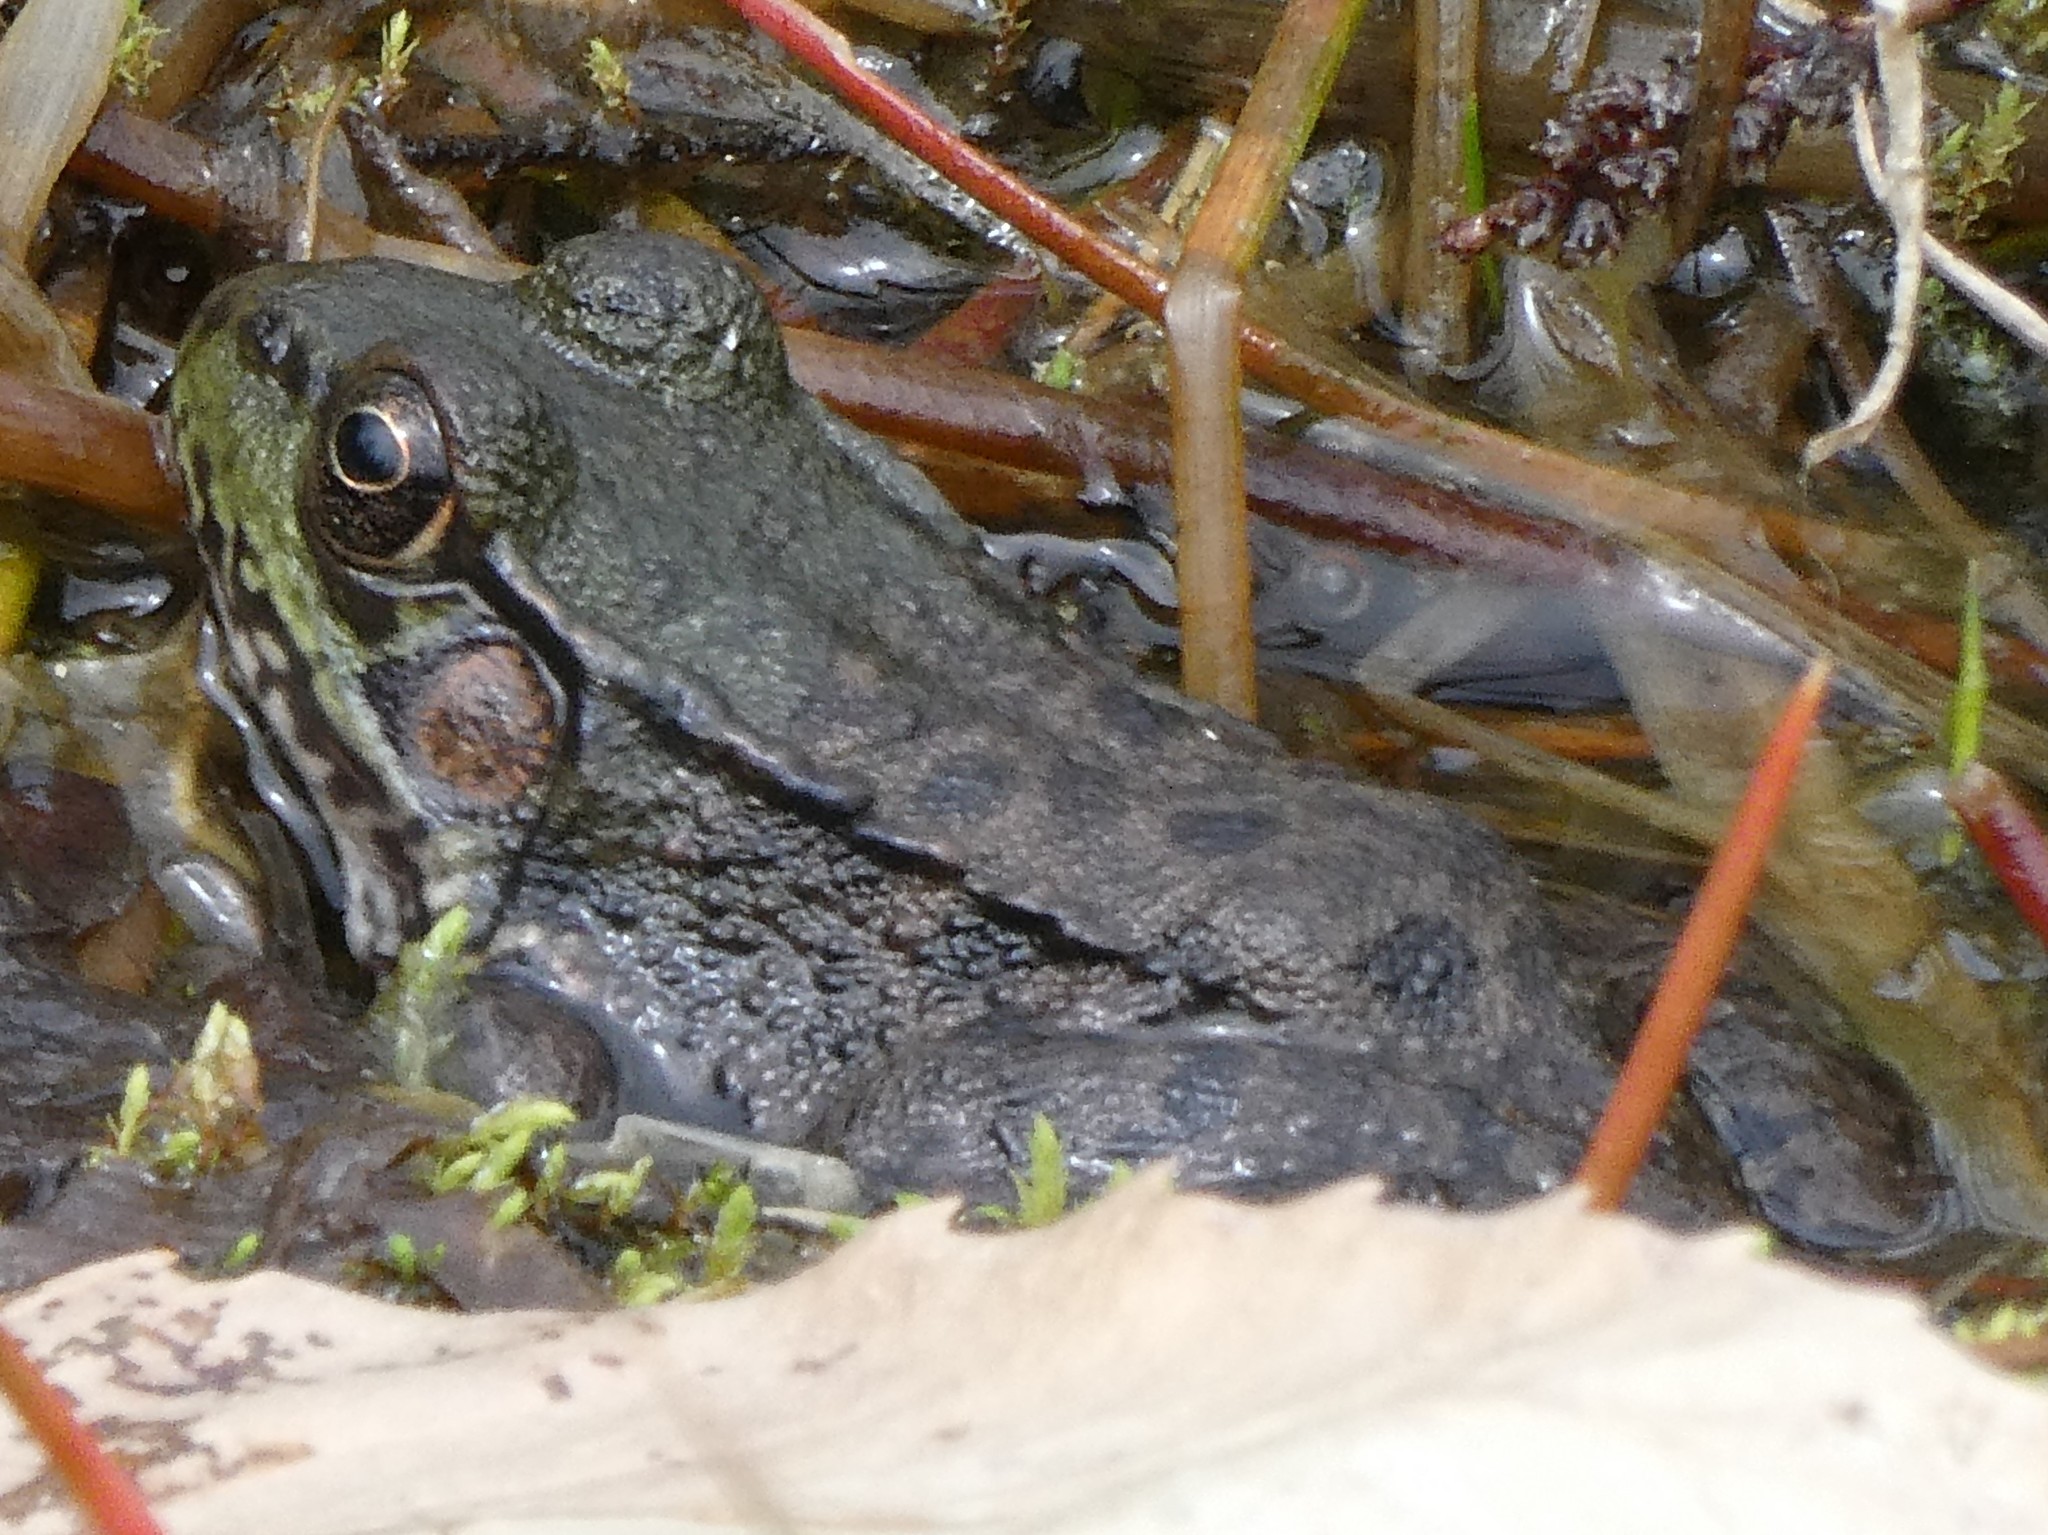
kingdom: Animalia
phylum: Chordata
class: Amphibia
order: Anura
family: Ranidae
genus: Lithobates
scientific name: Lithobates clamitans
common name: Green frog
